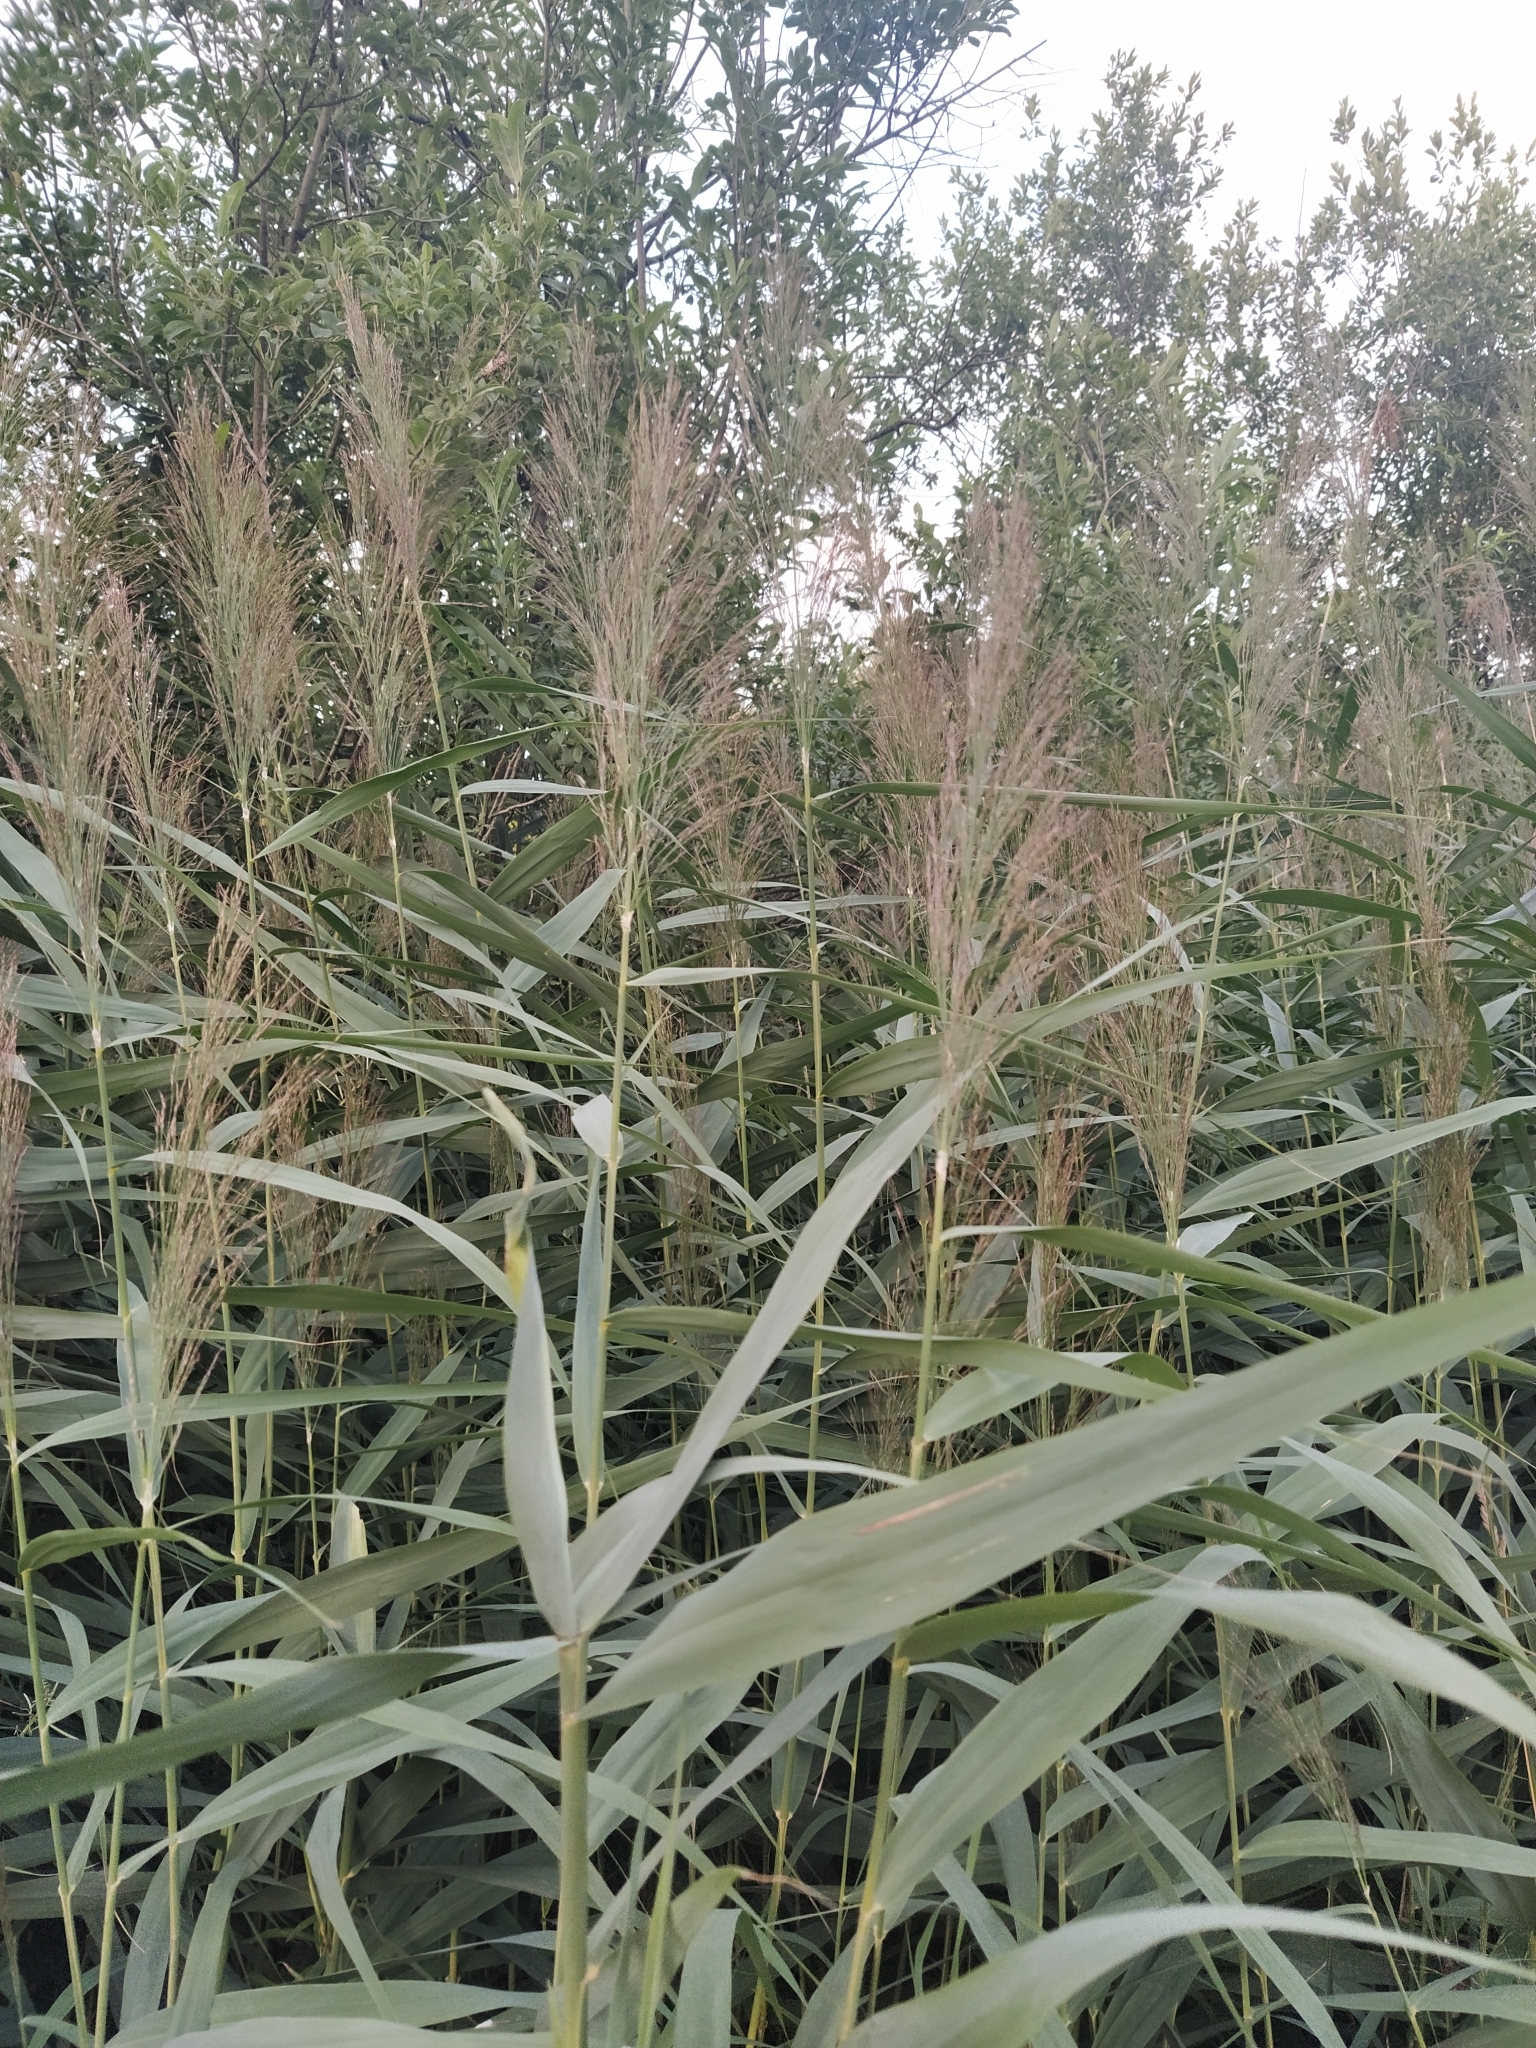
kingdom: Plantae
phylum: Tracheophyta
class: Liliopsida
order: Poales
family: Poaceae
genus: Phragmites
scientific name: Phragmites australis
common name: Common reed
